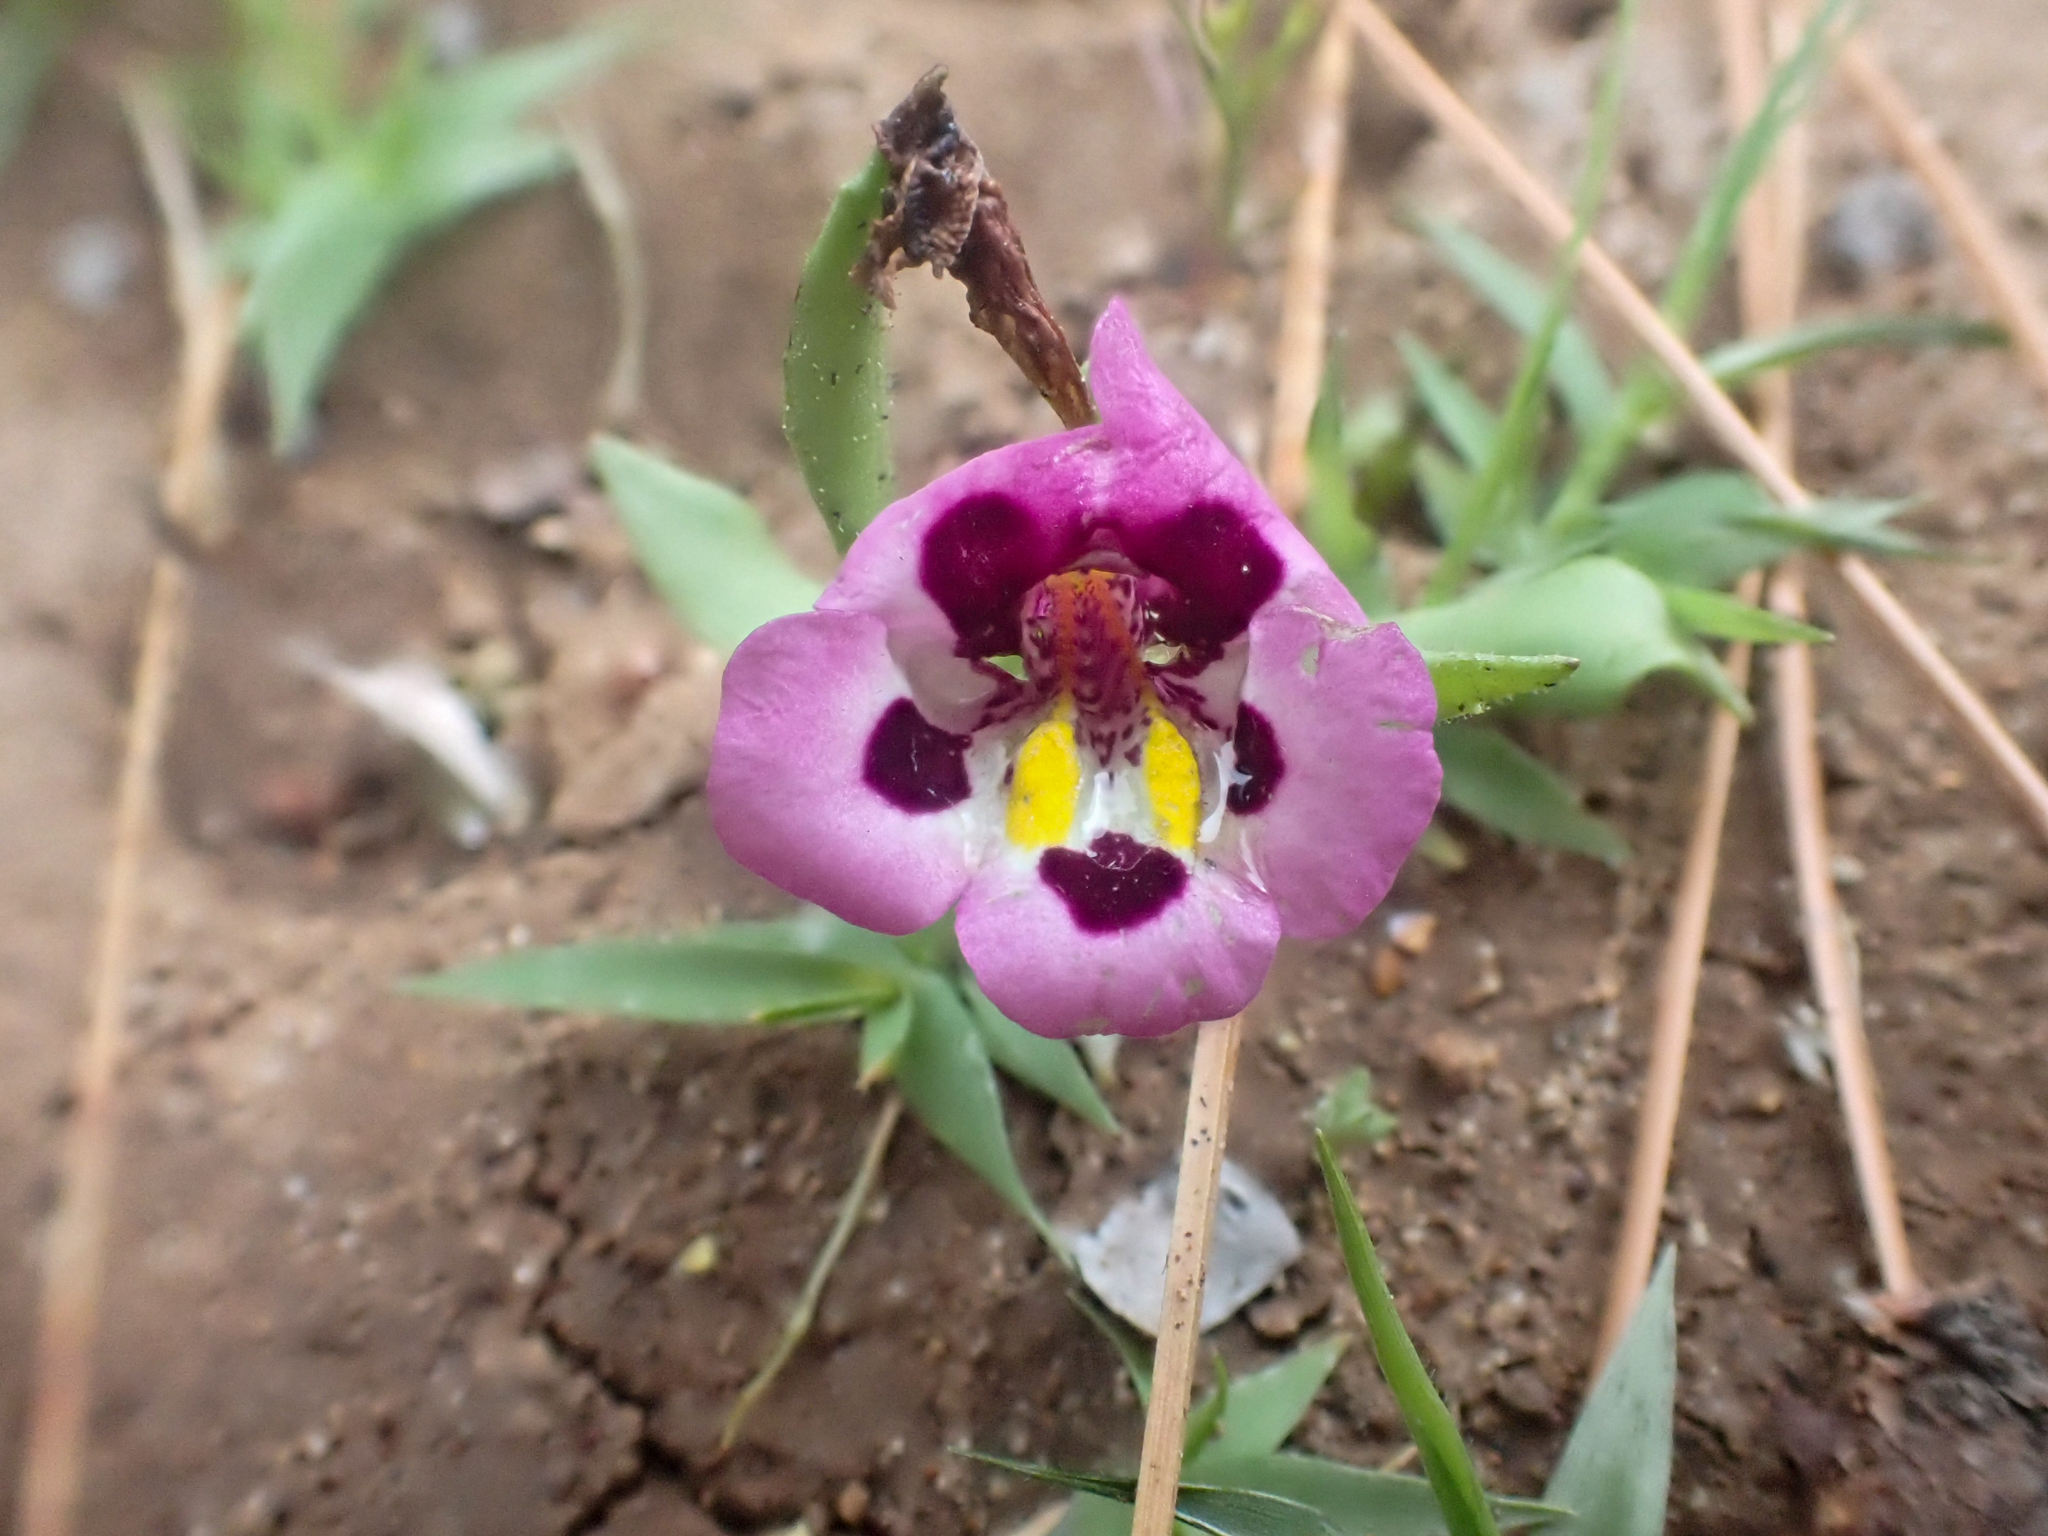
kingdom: Plantae
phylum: Tracheophyta
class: Magnoliopsida
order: Lamiales
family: Phrymaceae
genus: Diplacus
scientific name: Diplacus tricolor
